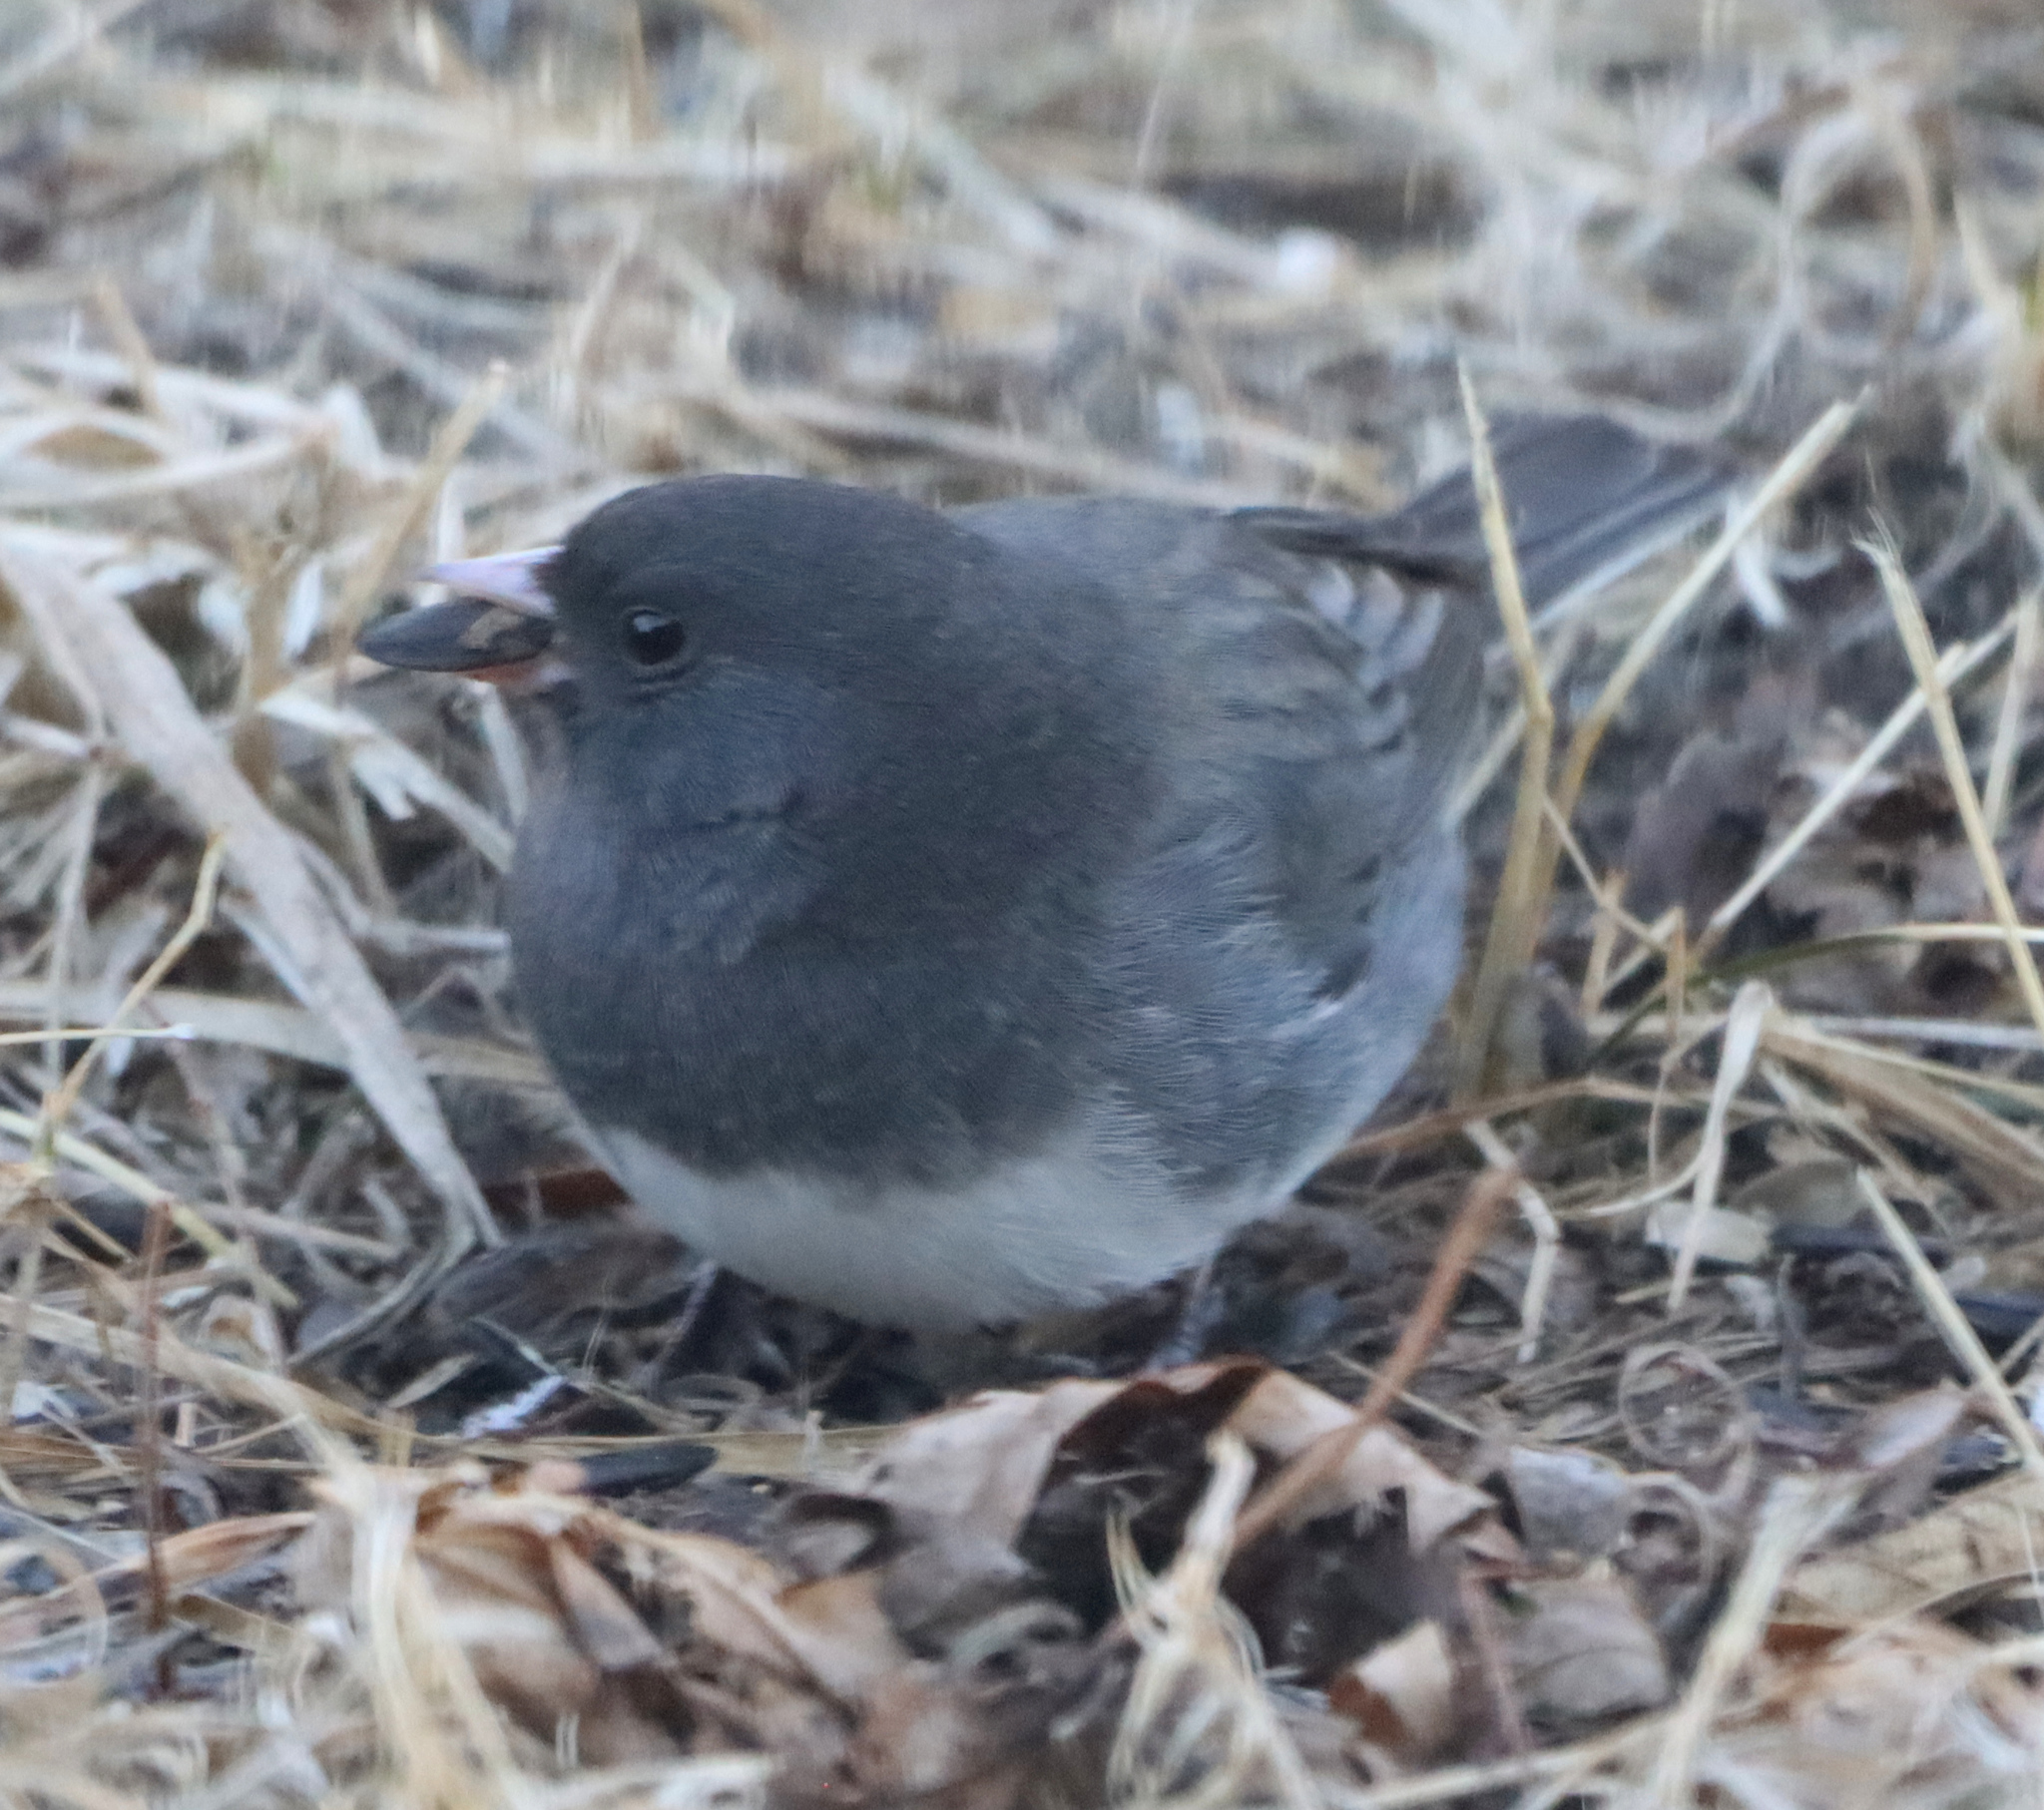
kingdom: Animalia
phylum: Chordata
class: Aves
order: Passeriformes
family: Passerellidae
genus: Junco
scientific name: Junco hyemalis
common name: Dark-eyed junco
